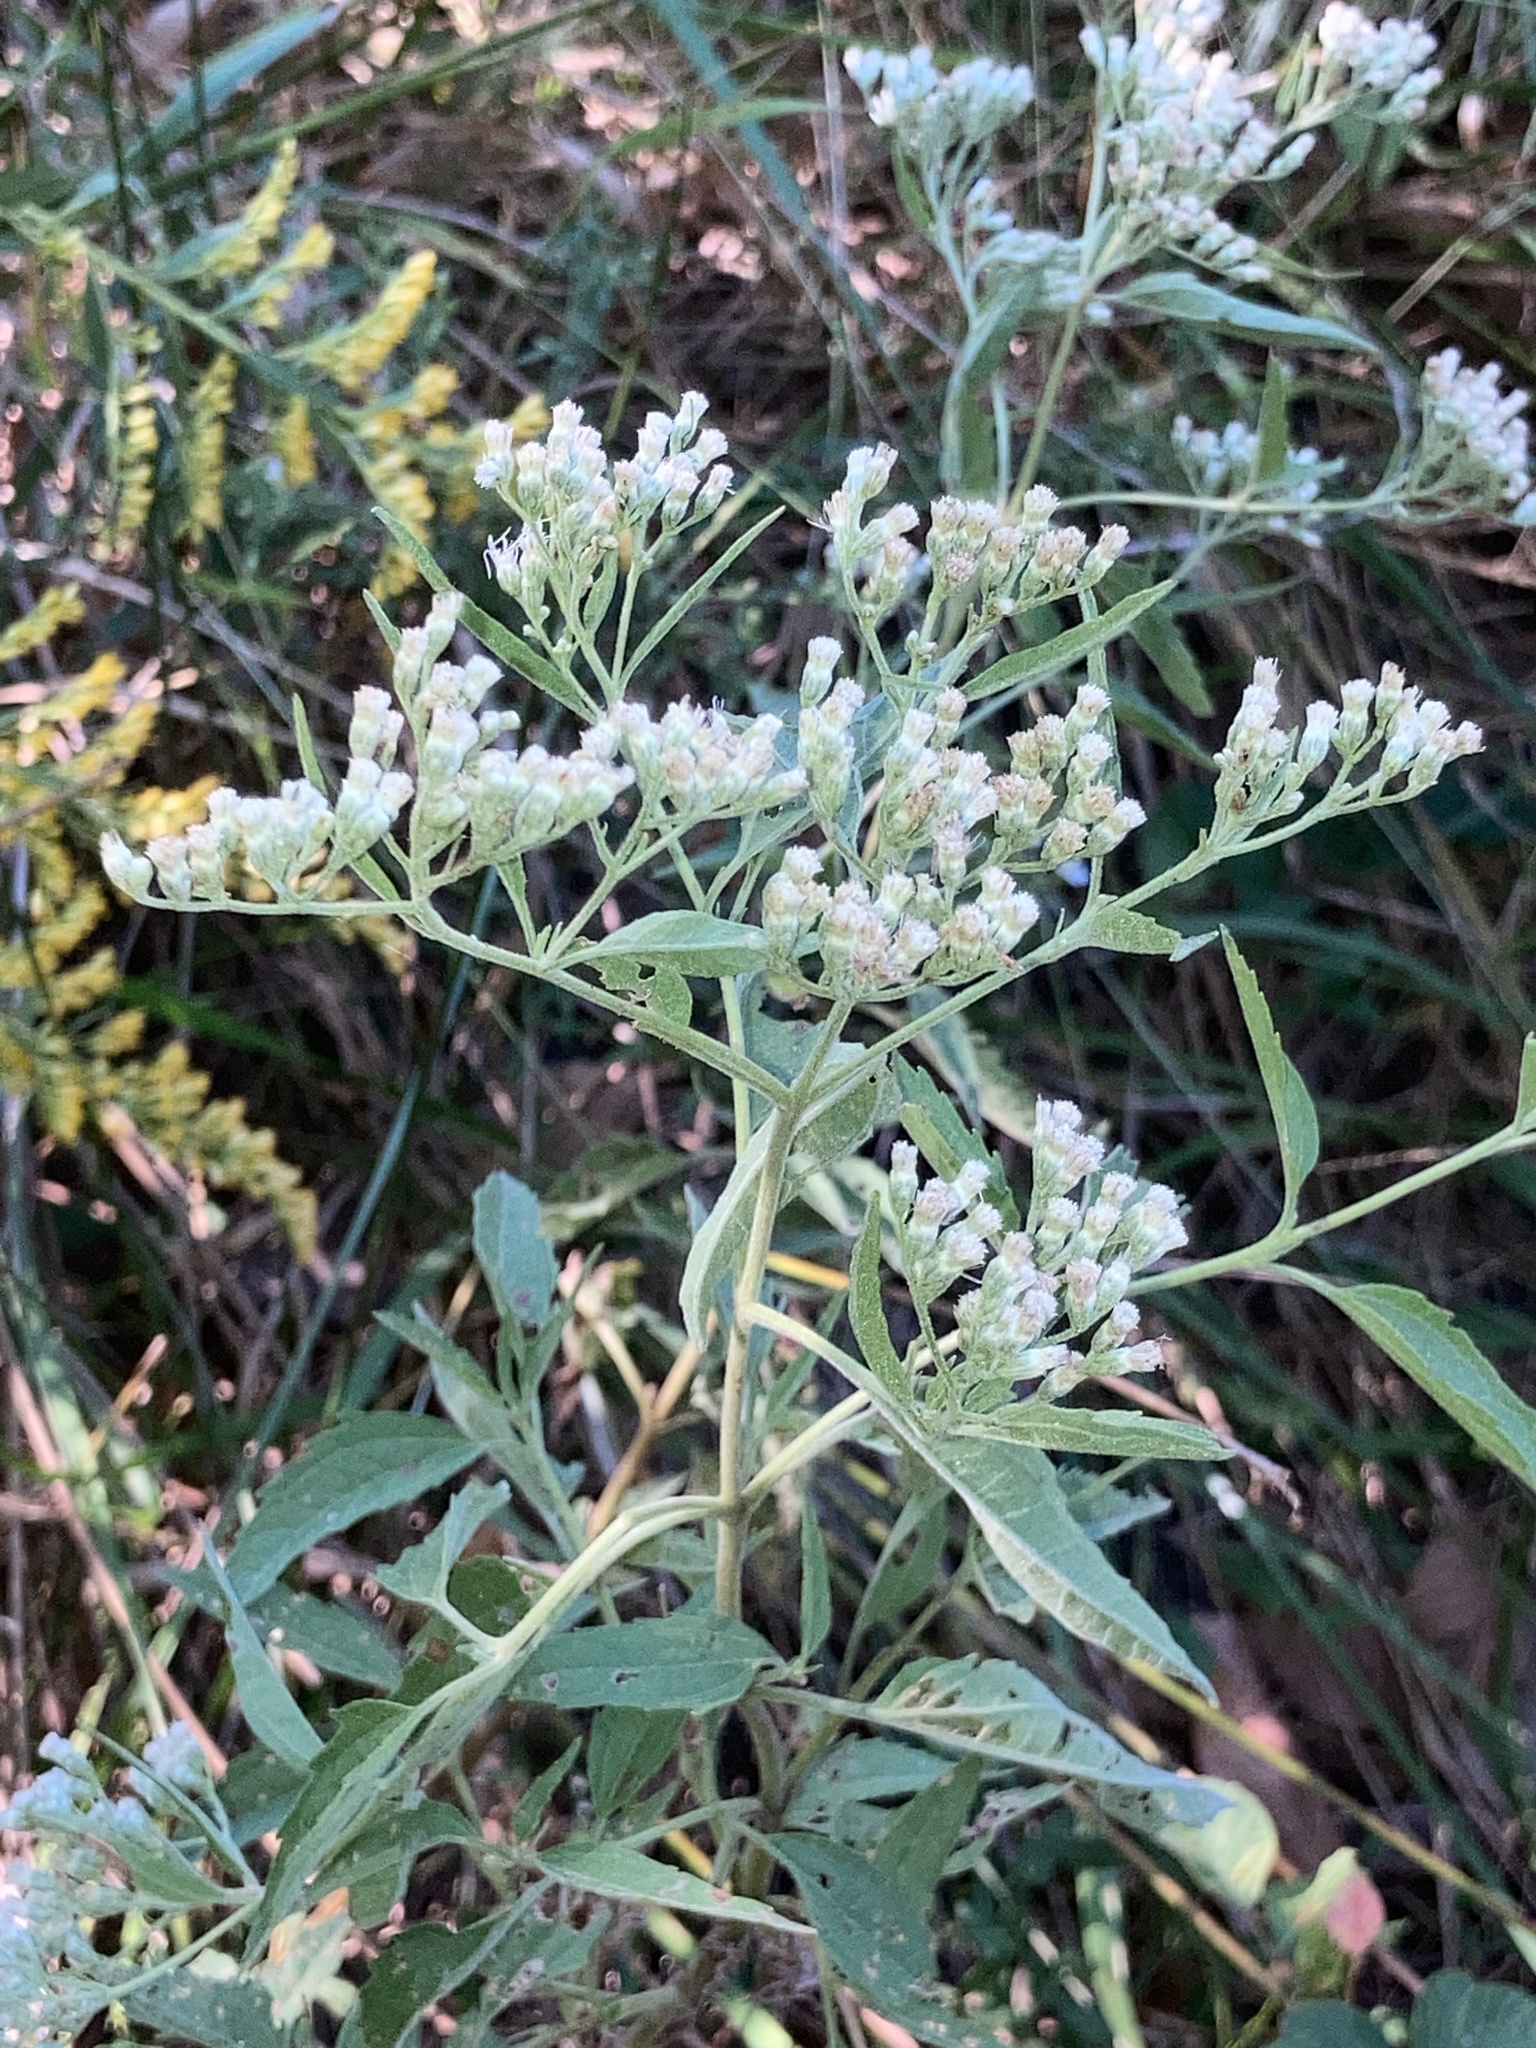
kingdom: Plantae
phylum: Tracheophyta
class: Magnoliopsida
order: Asterales
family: Asteraceae
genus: Eupatorium
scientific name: Eupatorium serotinum
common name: Late boneset
